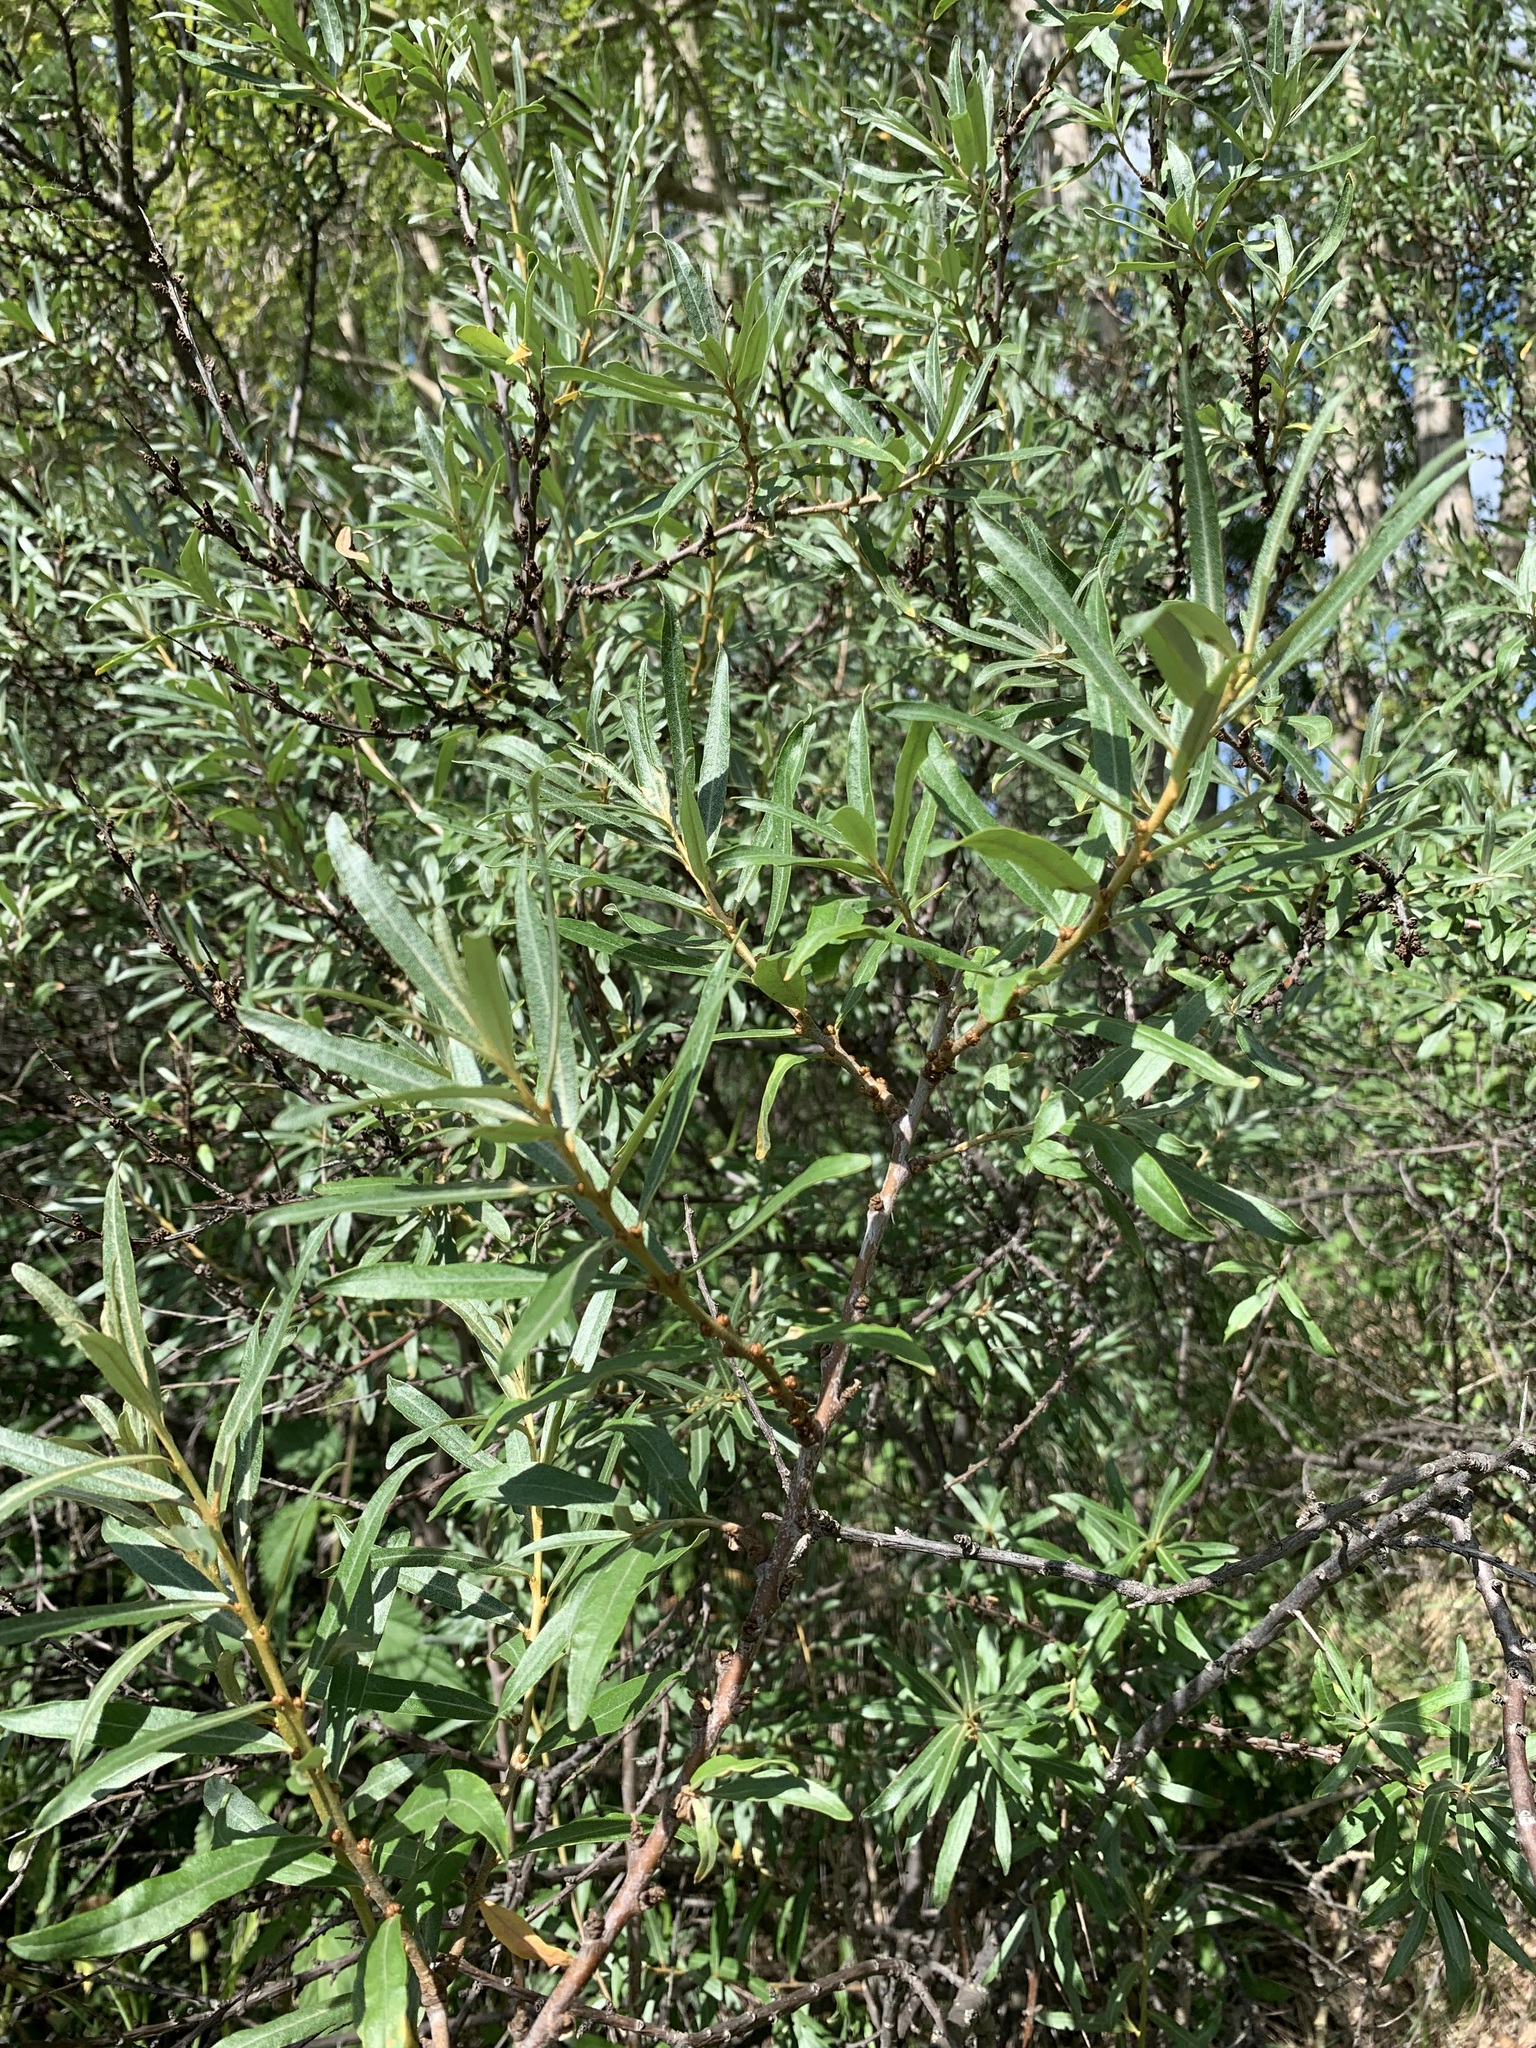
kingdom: Plantae
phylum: Tracheophyta
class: Magnoliopsida
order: Rosales
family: Elaeagnaceae
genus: Hippophae
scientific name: Hippophae rhamnoides
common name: Sea-buckthorn
